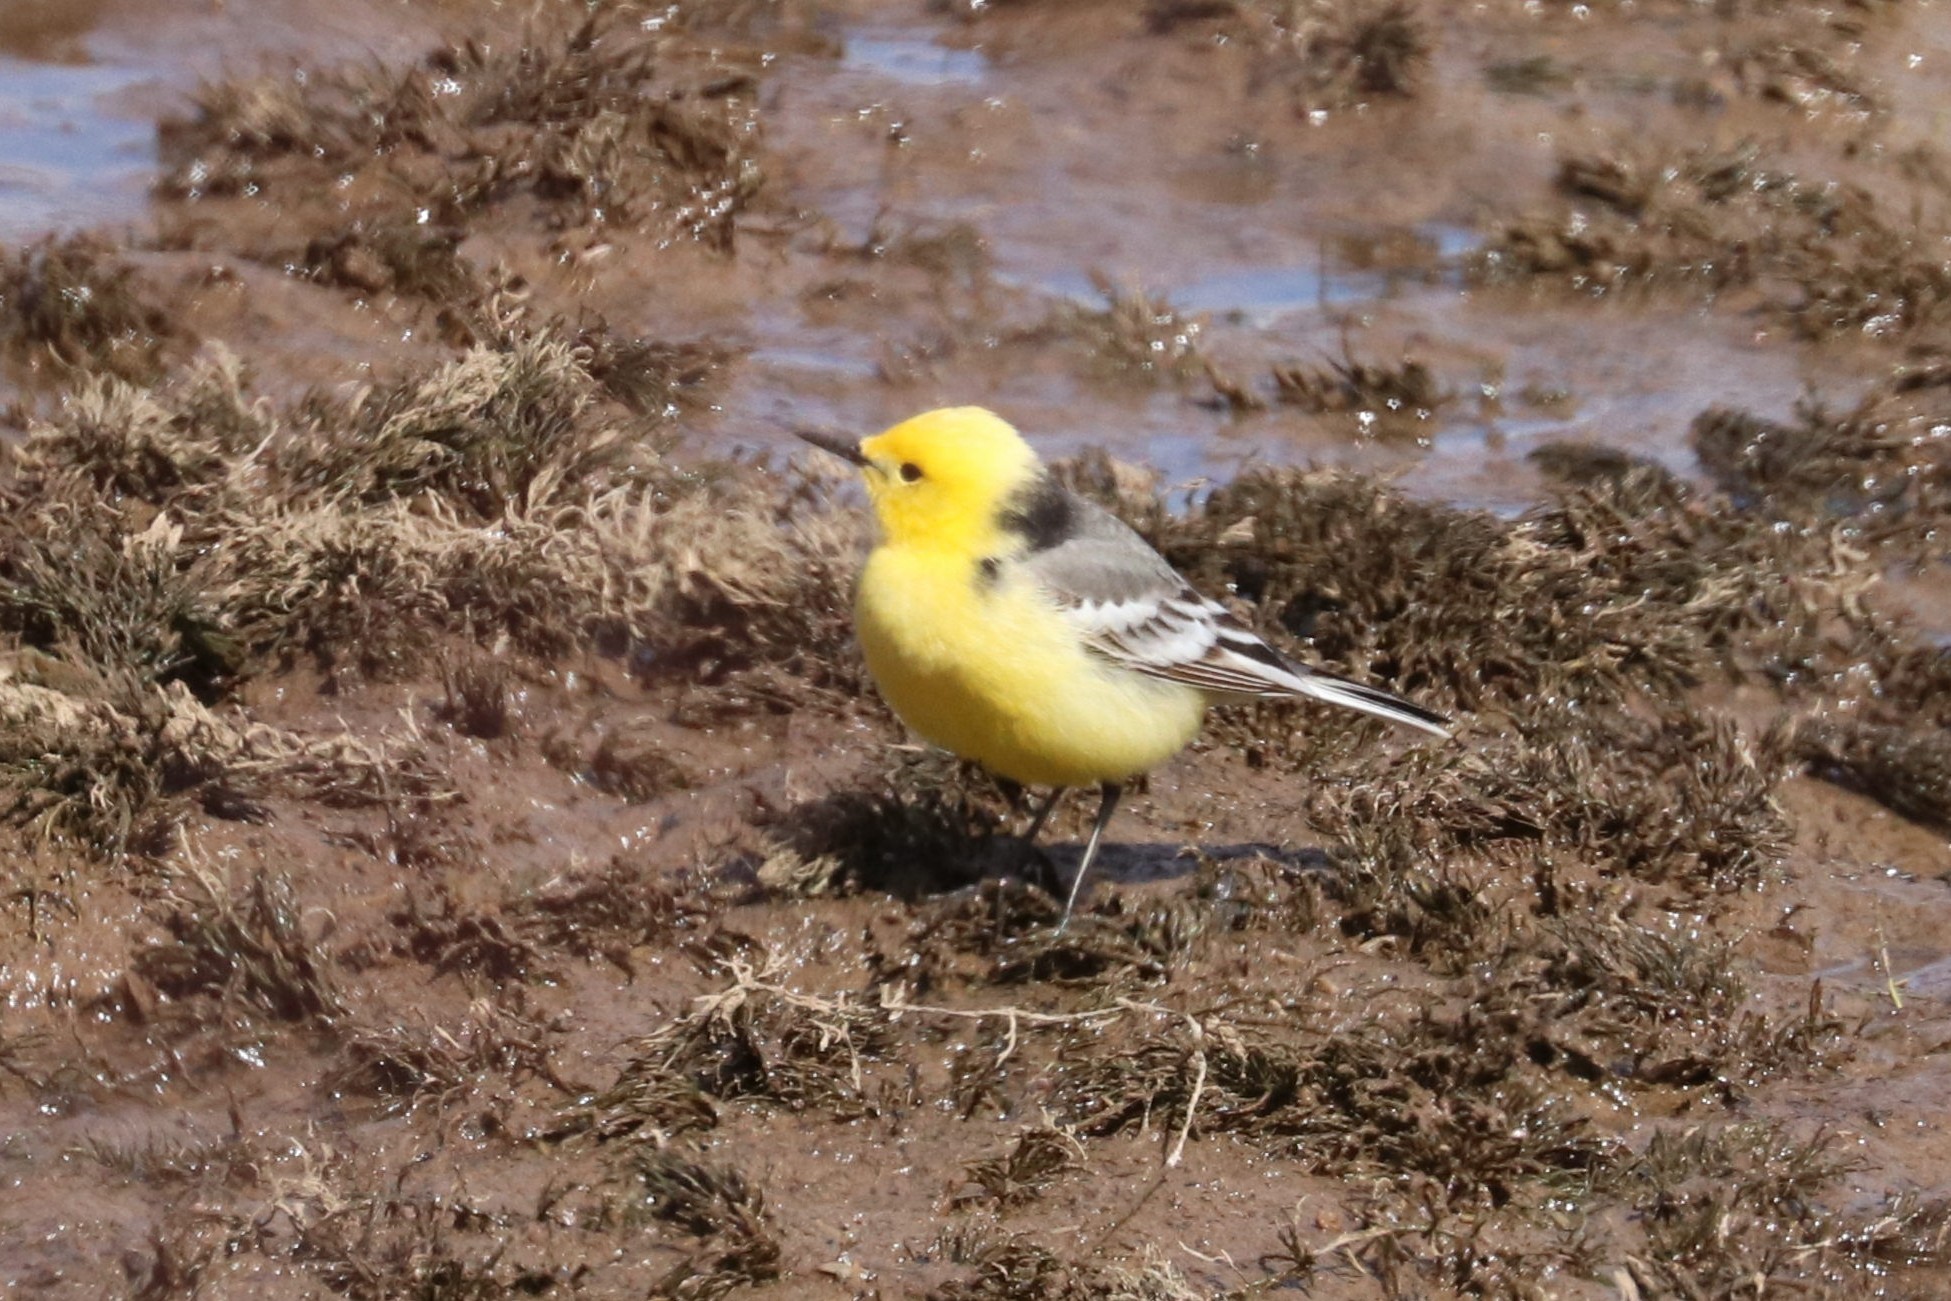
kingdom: Animalia
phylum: Chordata
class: Aves
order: Passeriformes
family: Motacillidae
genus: Motacilla
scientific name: Motacilla citreola
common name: Citrine wagtail
